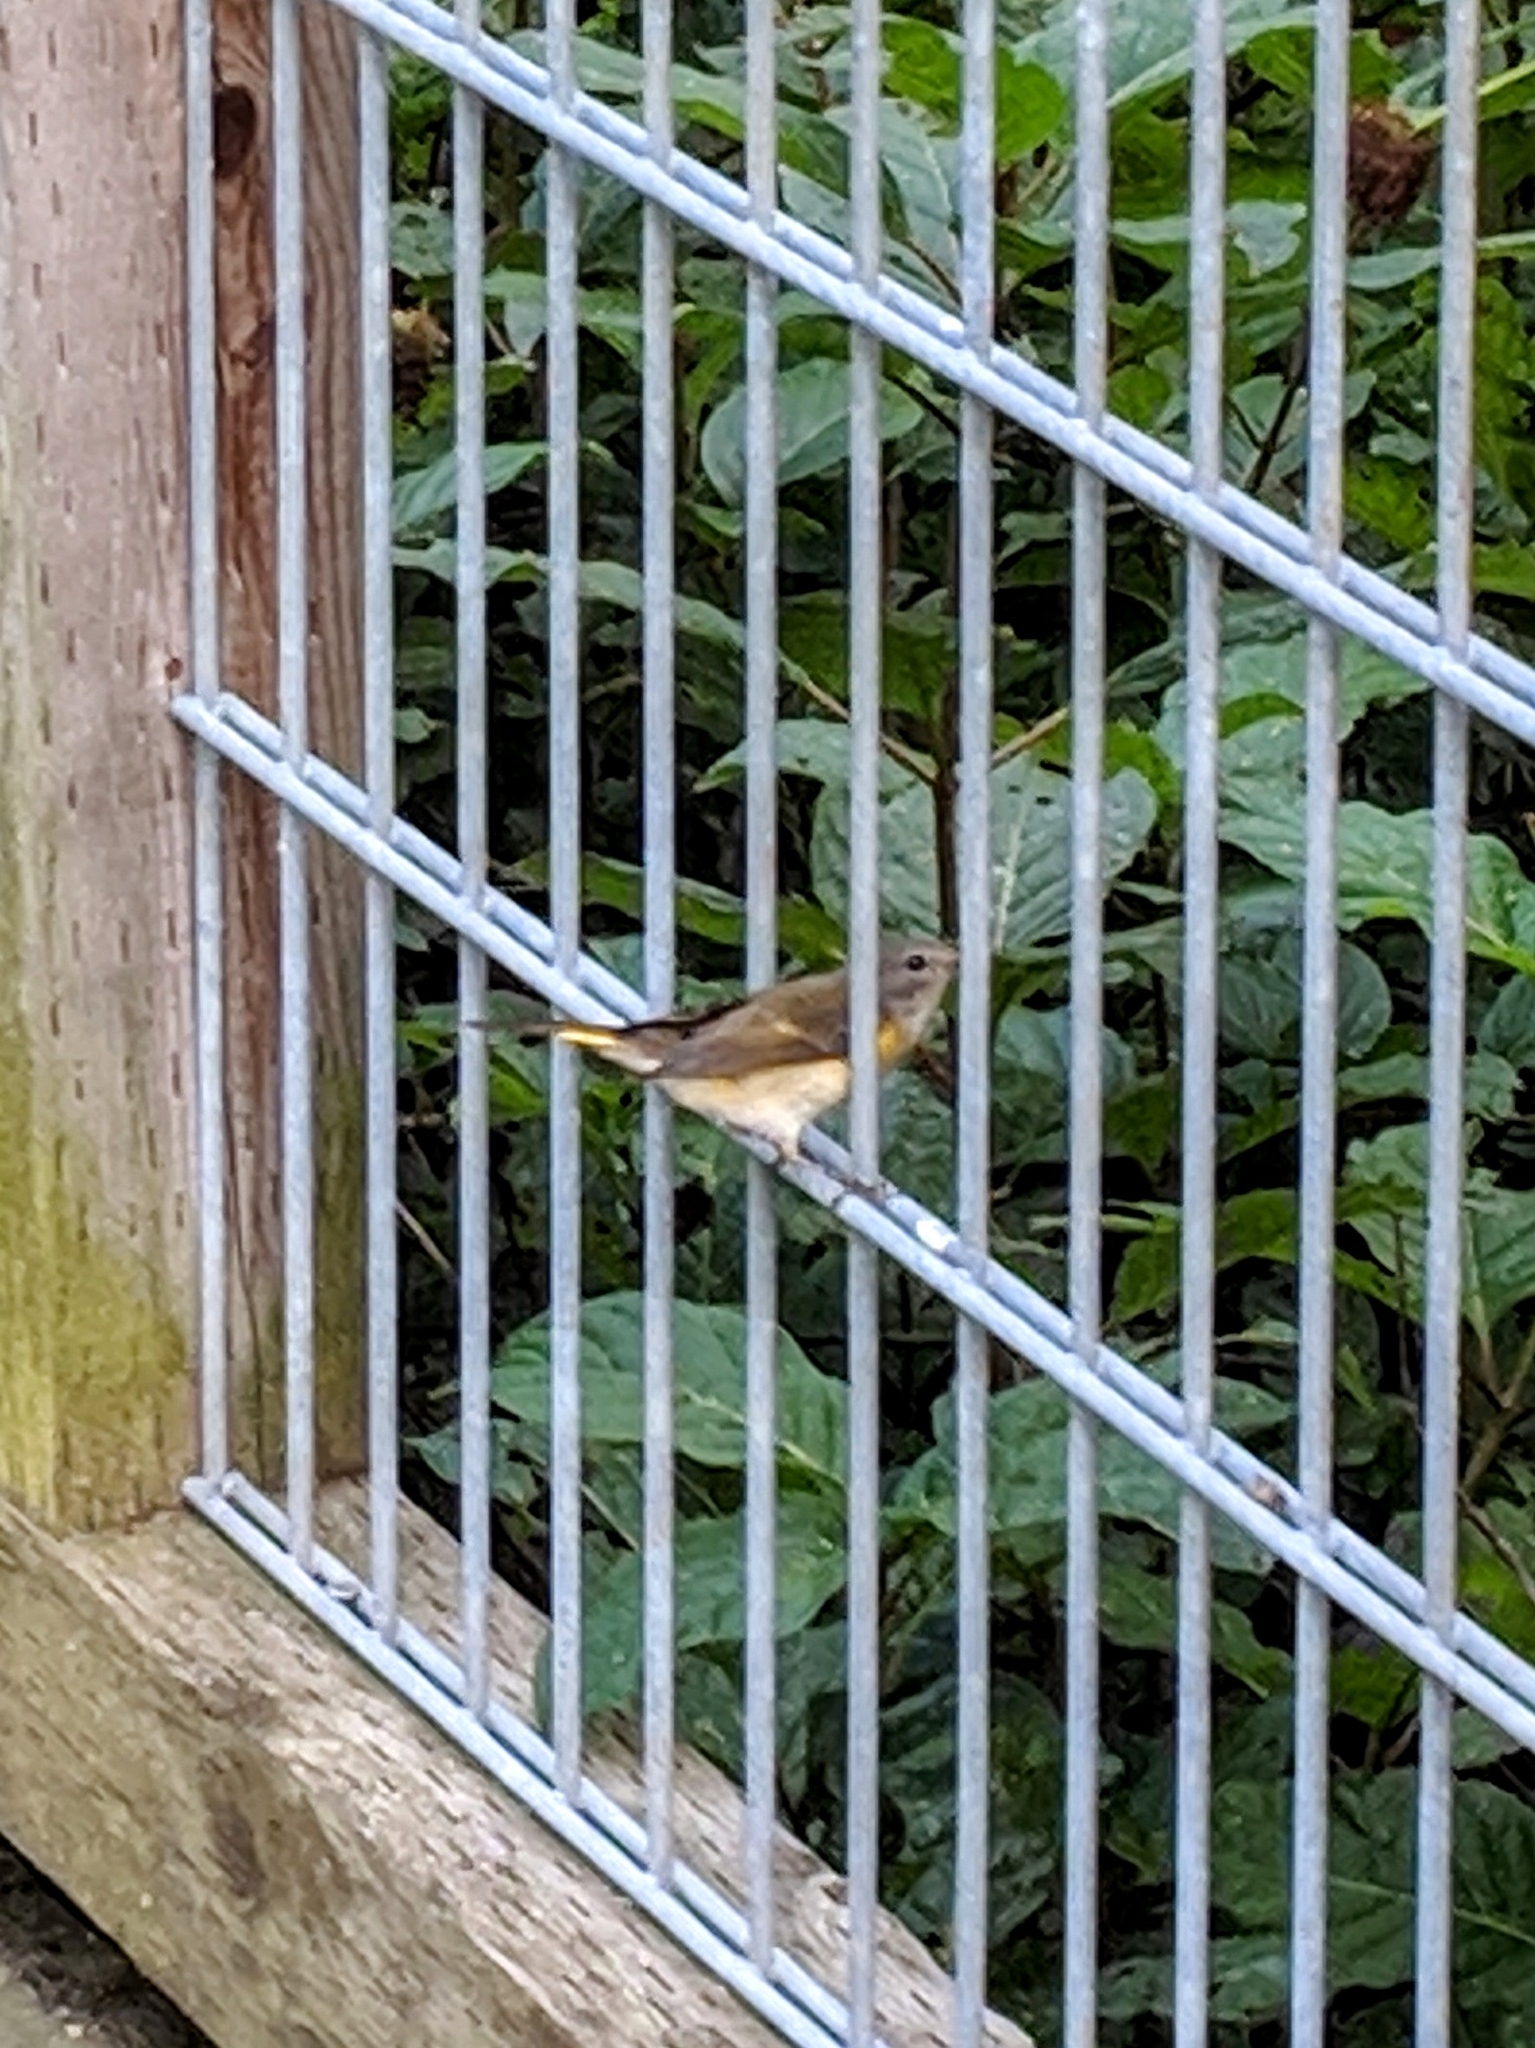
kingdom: Animalia
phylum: Chordata
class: Aves
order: Passeriformes
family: Parulidae
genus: Setophaga
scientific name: Setophaga ruticilla
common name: American redstart
